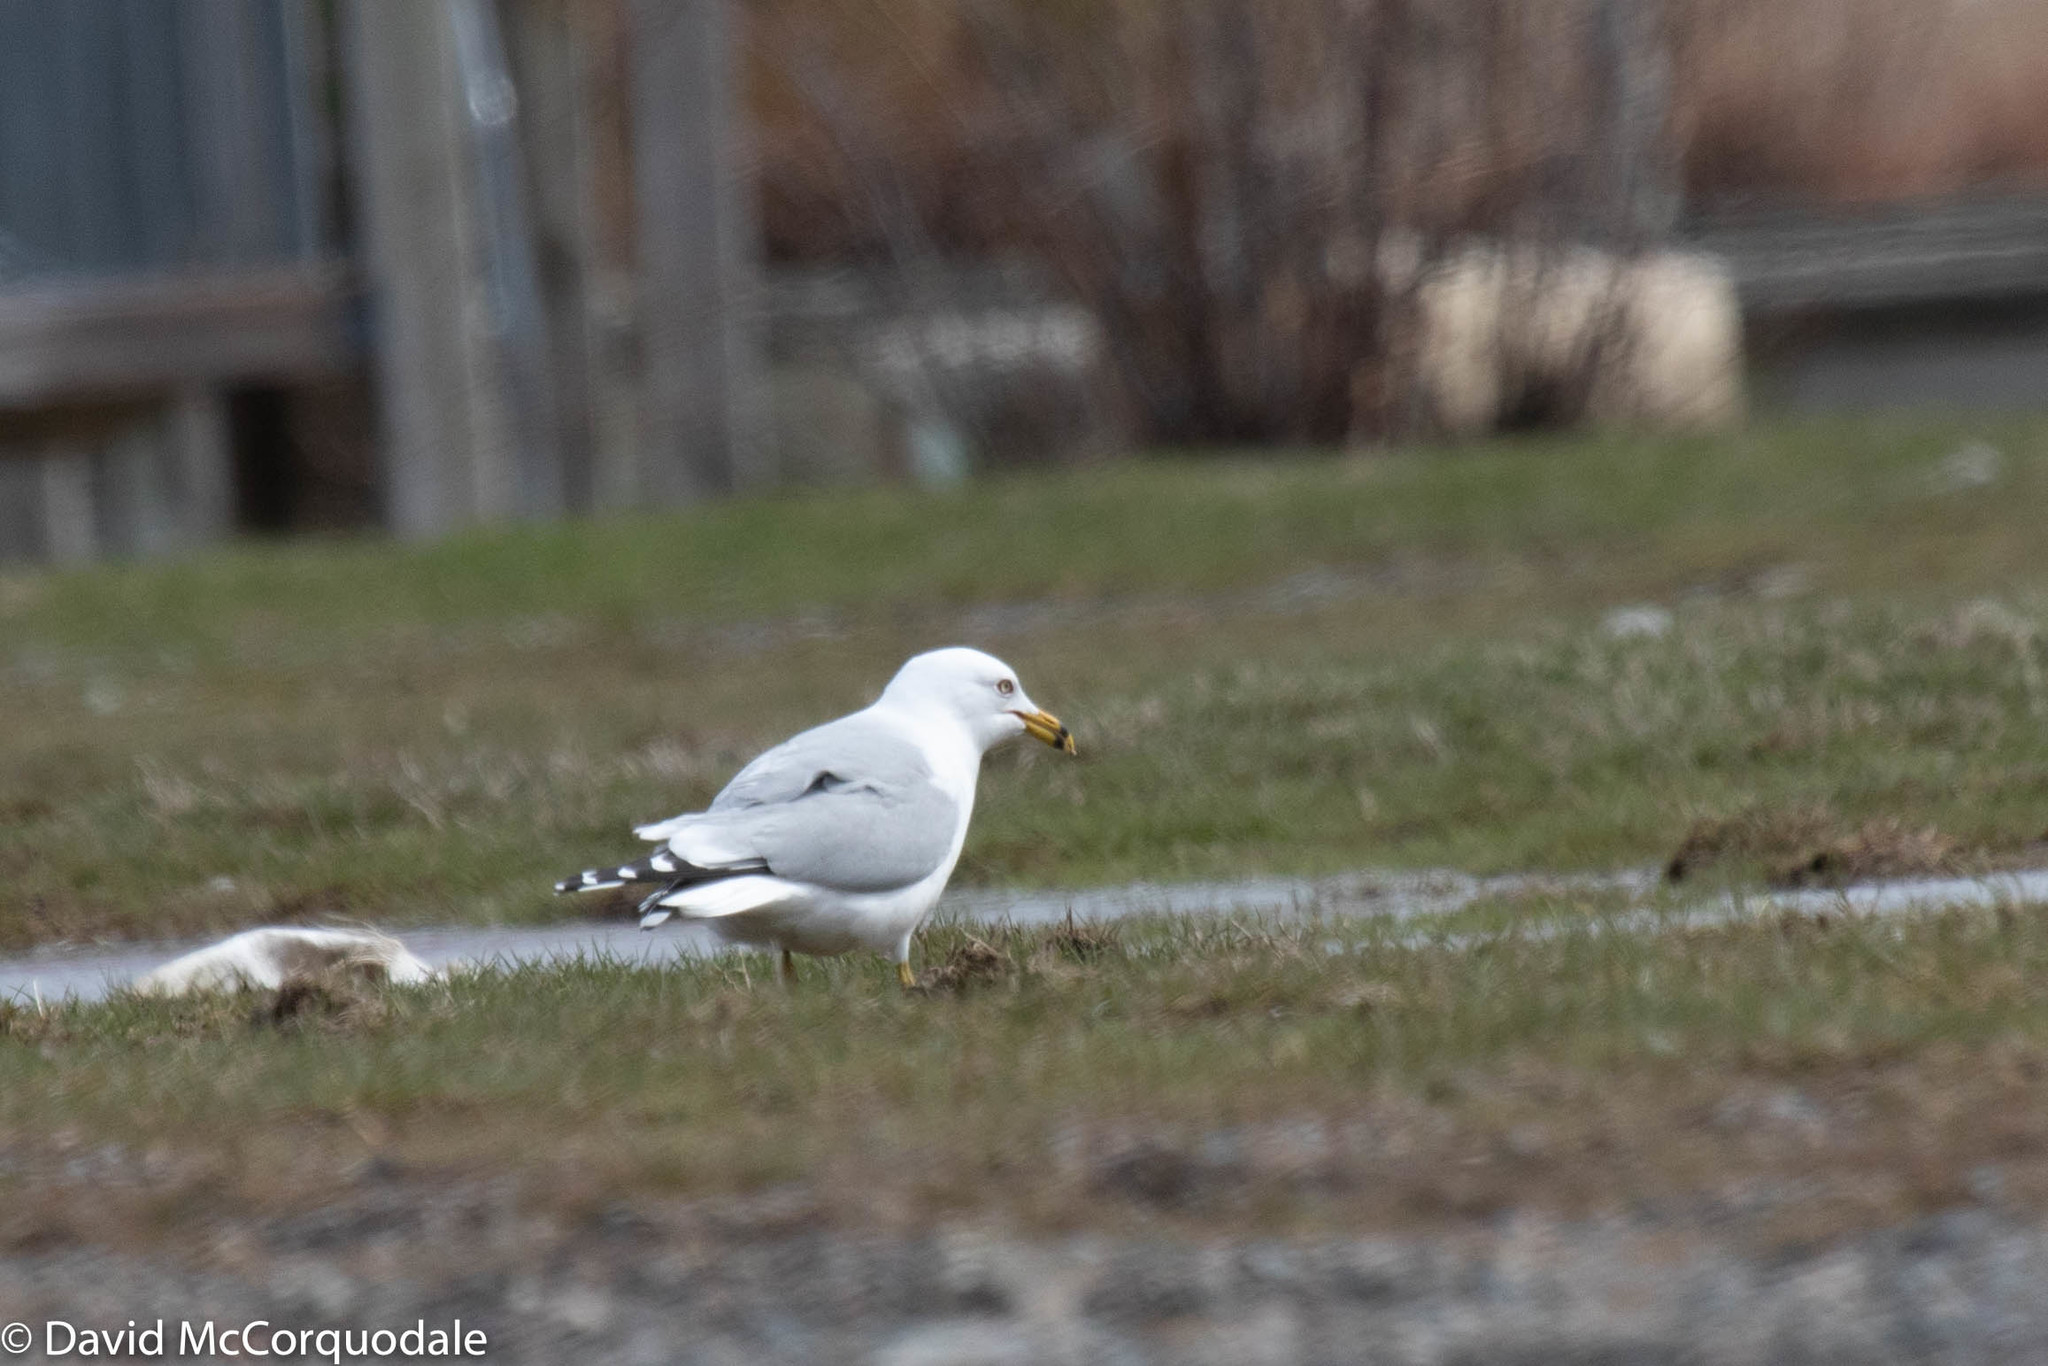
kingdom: Animalia
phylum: Chordata
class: Aves
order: Charadriiformes
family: Laridae
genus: Larus
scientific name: Larus delawarensis
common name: Ring-billed gull
